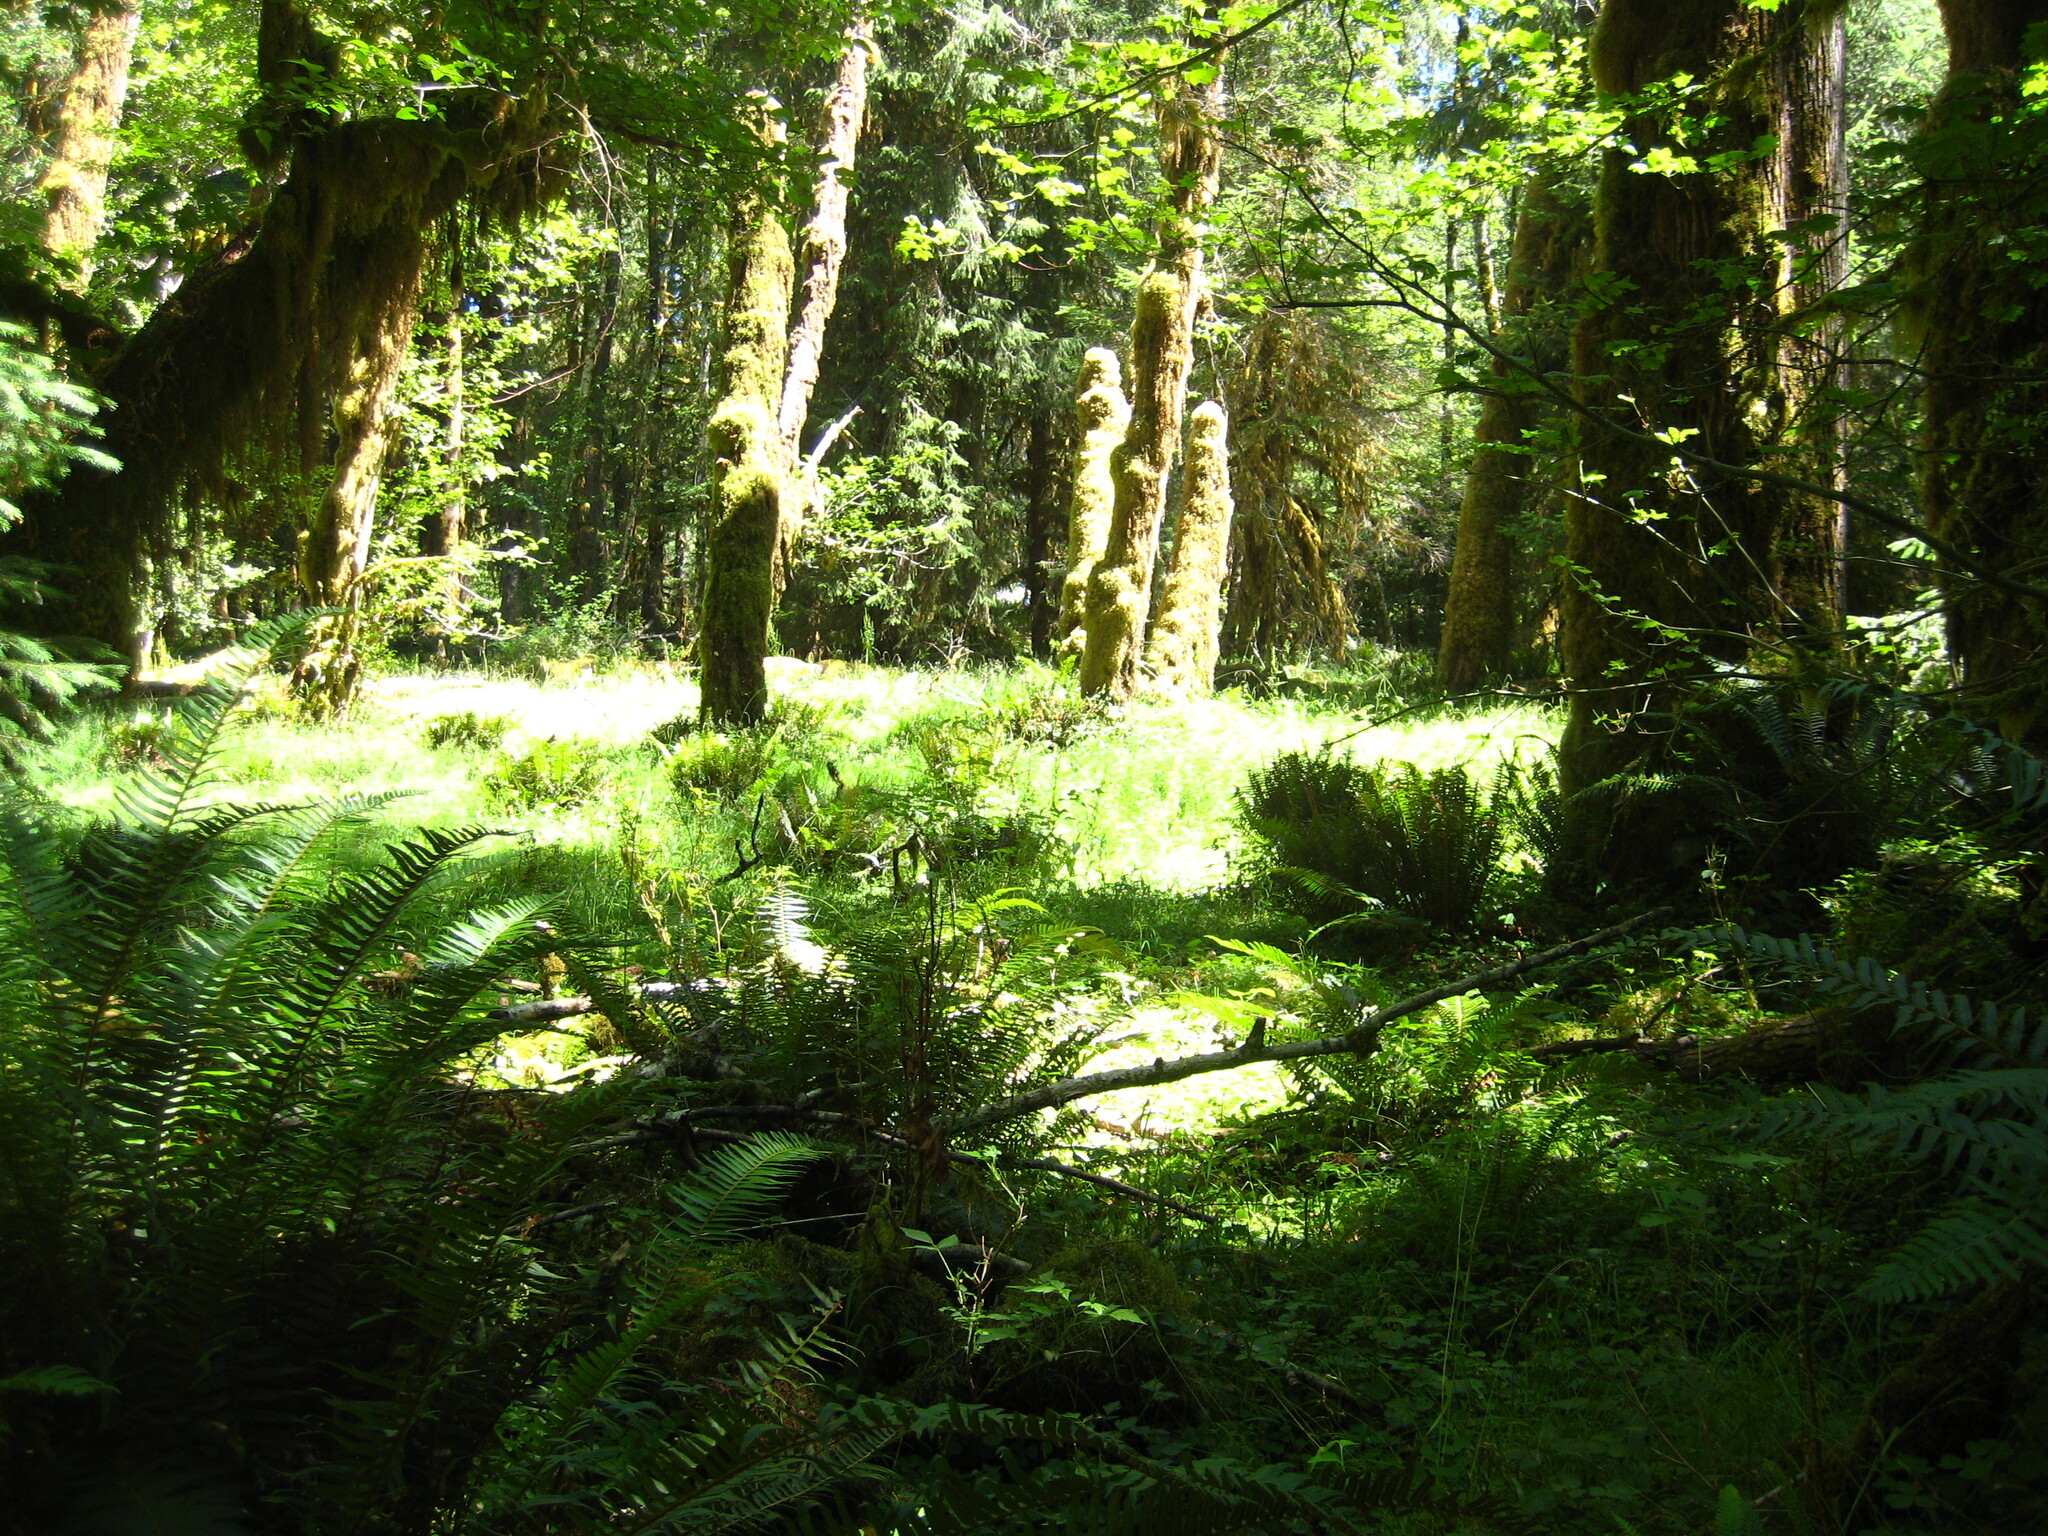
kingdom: Plantae
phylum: Tracheophyta
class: Polypodiopsida
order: Polypodiales
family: Dryopteridaceae
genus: Polystichum
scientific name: Polystichum munitum
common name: Western sword-fern
